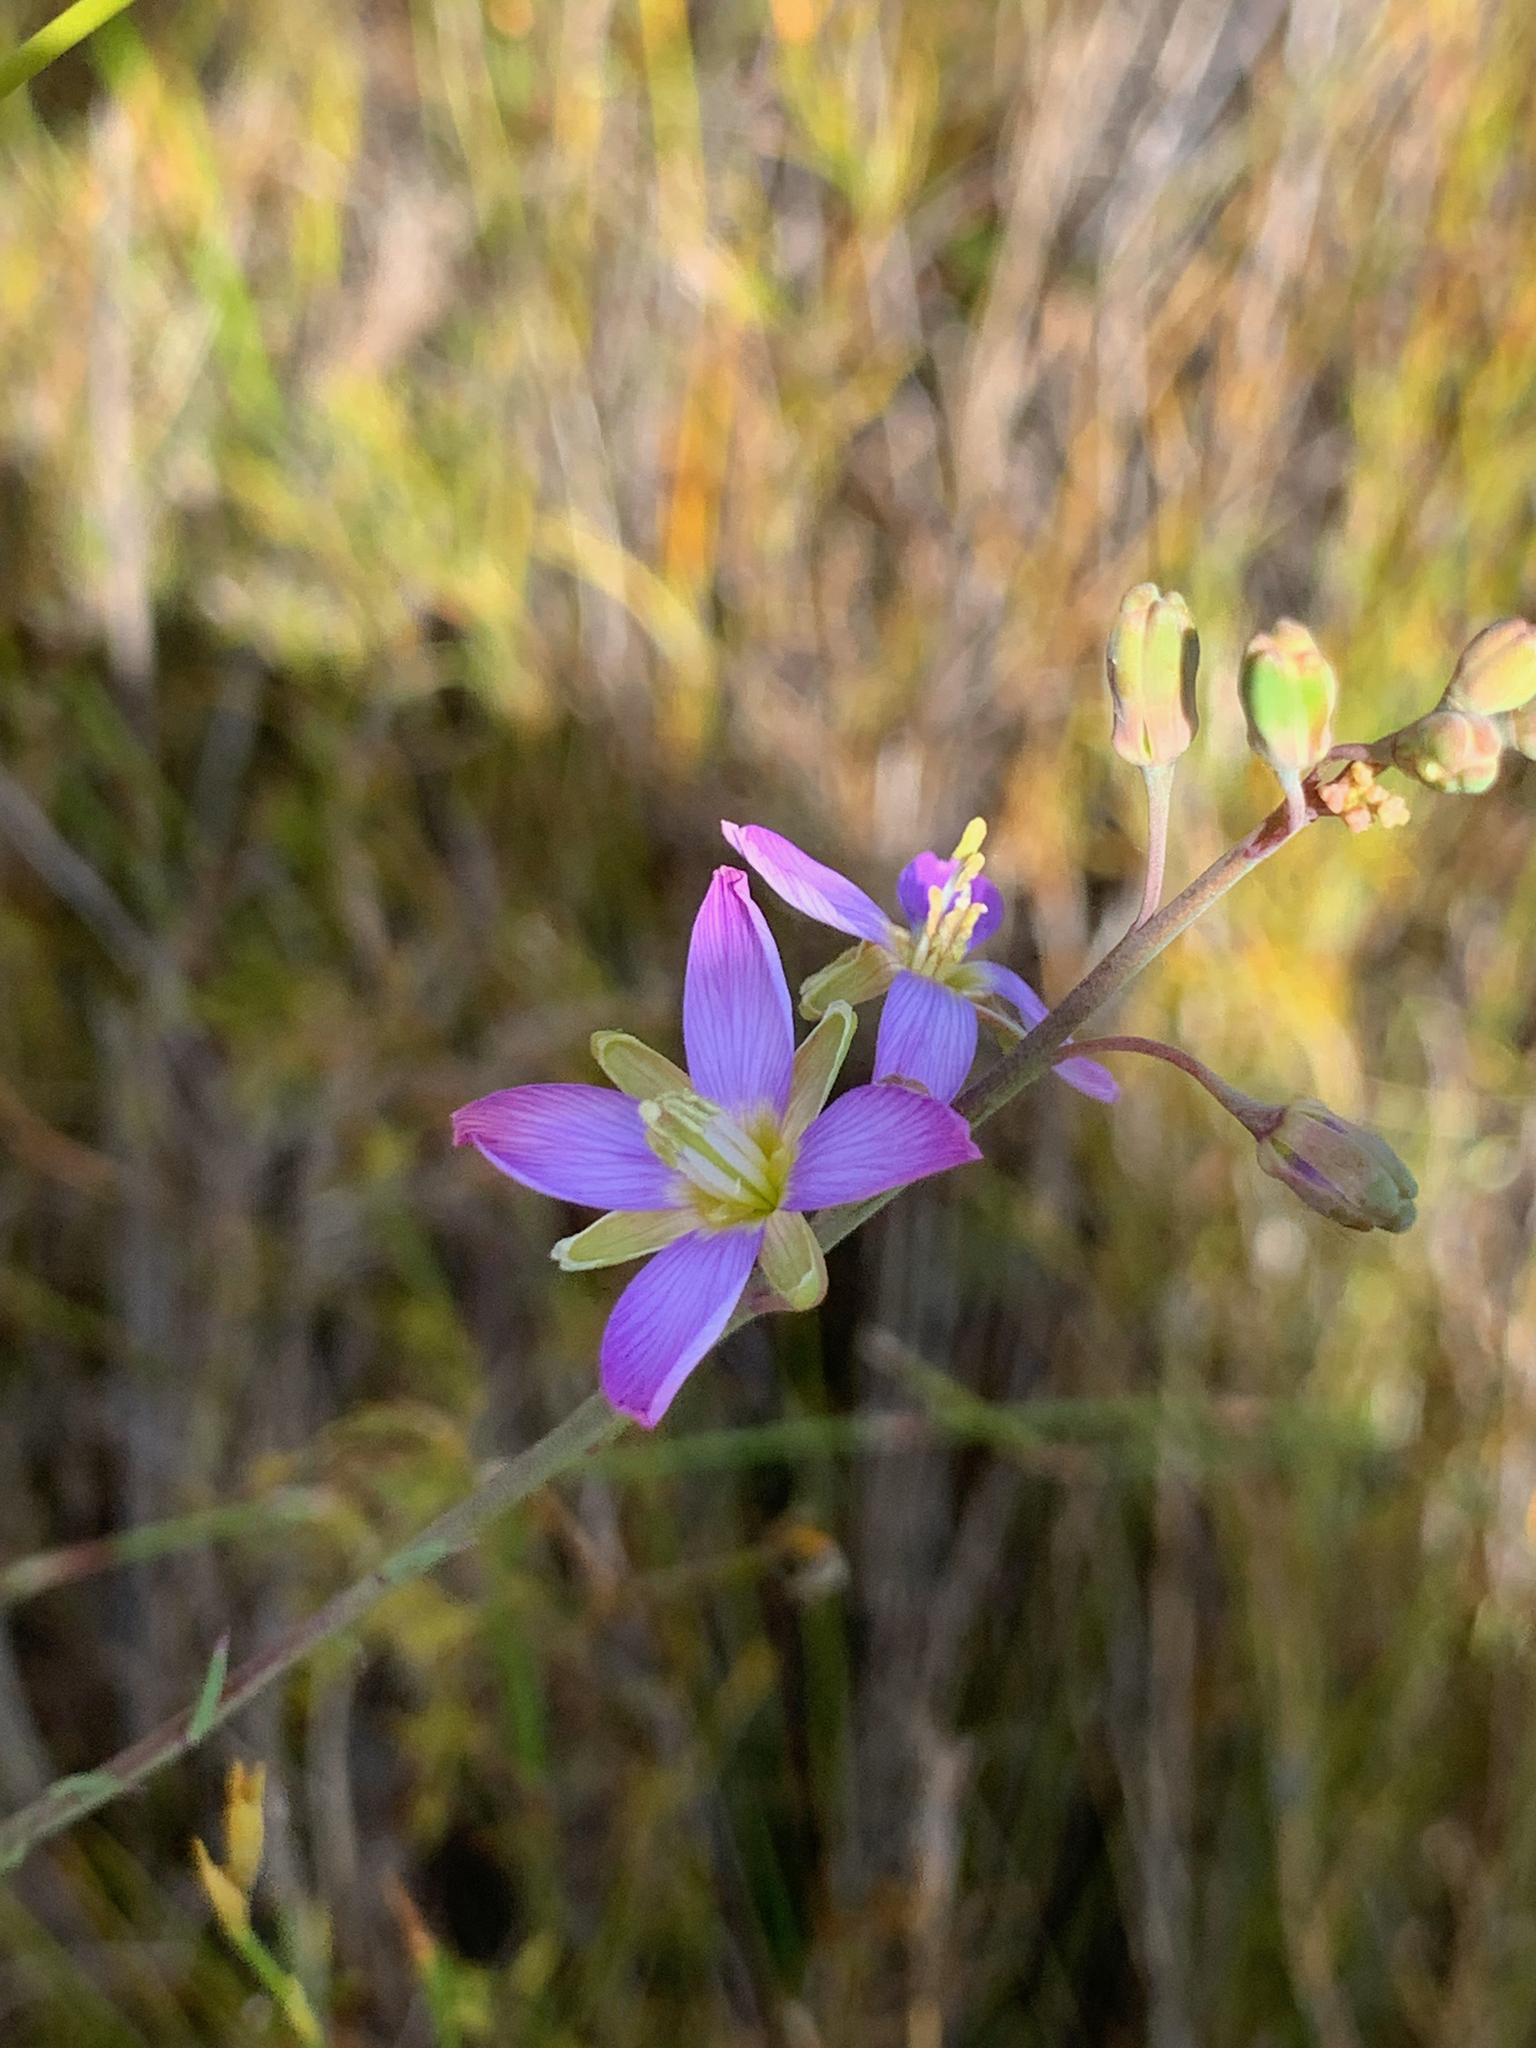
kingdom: Plantae
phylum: Tracheophyta
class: Magnoliopsida
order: Brassicales
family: Brassicaceae
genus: Heliophila
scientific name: Heliophila linearis
